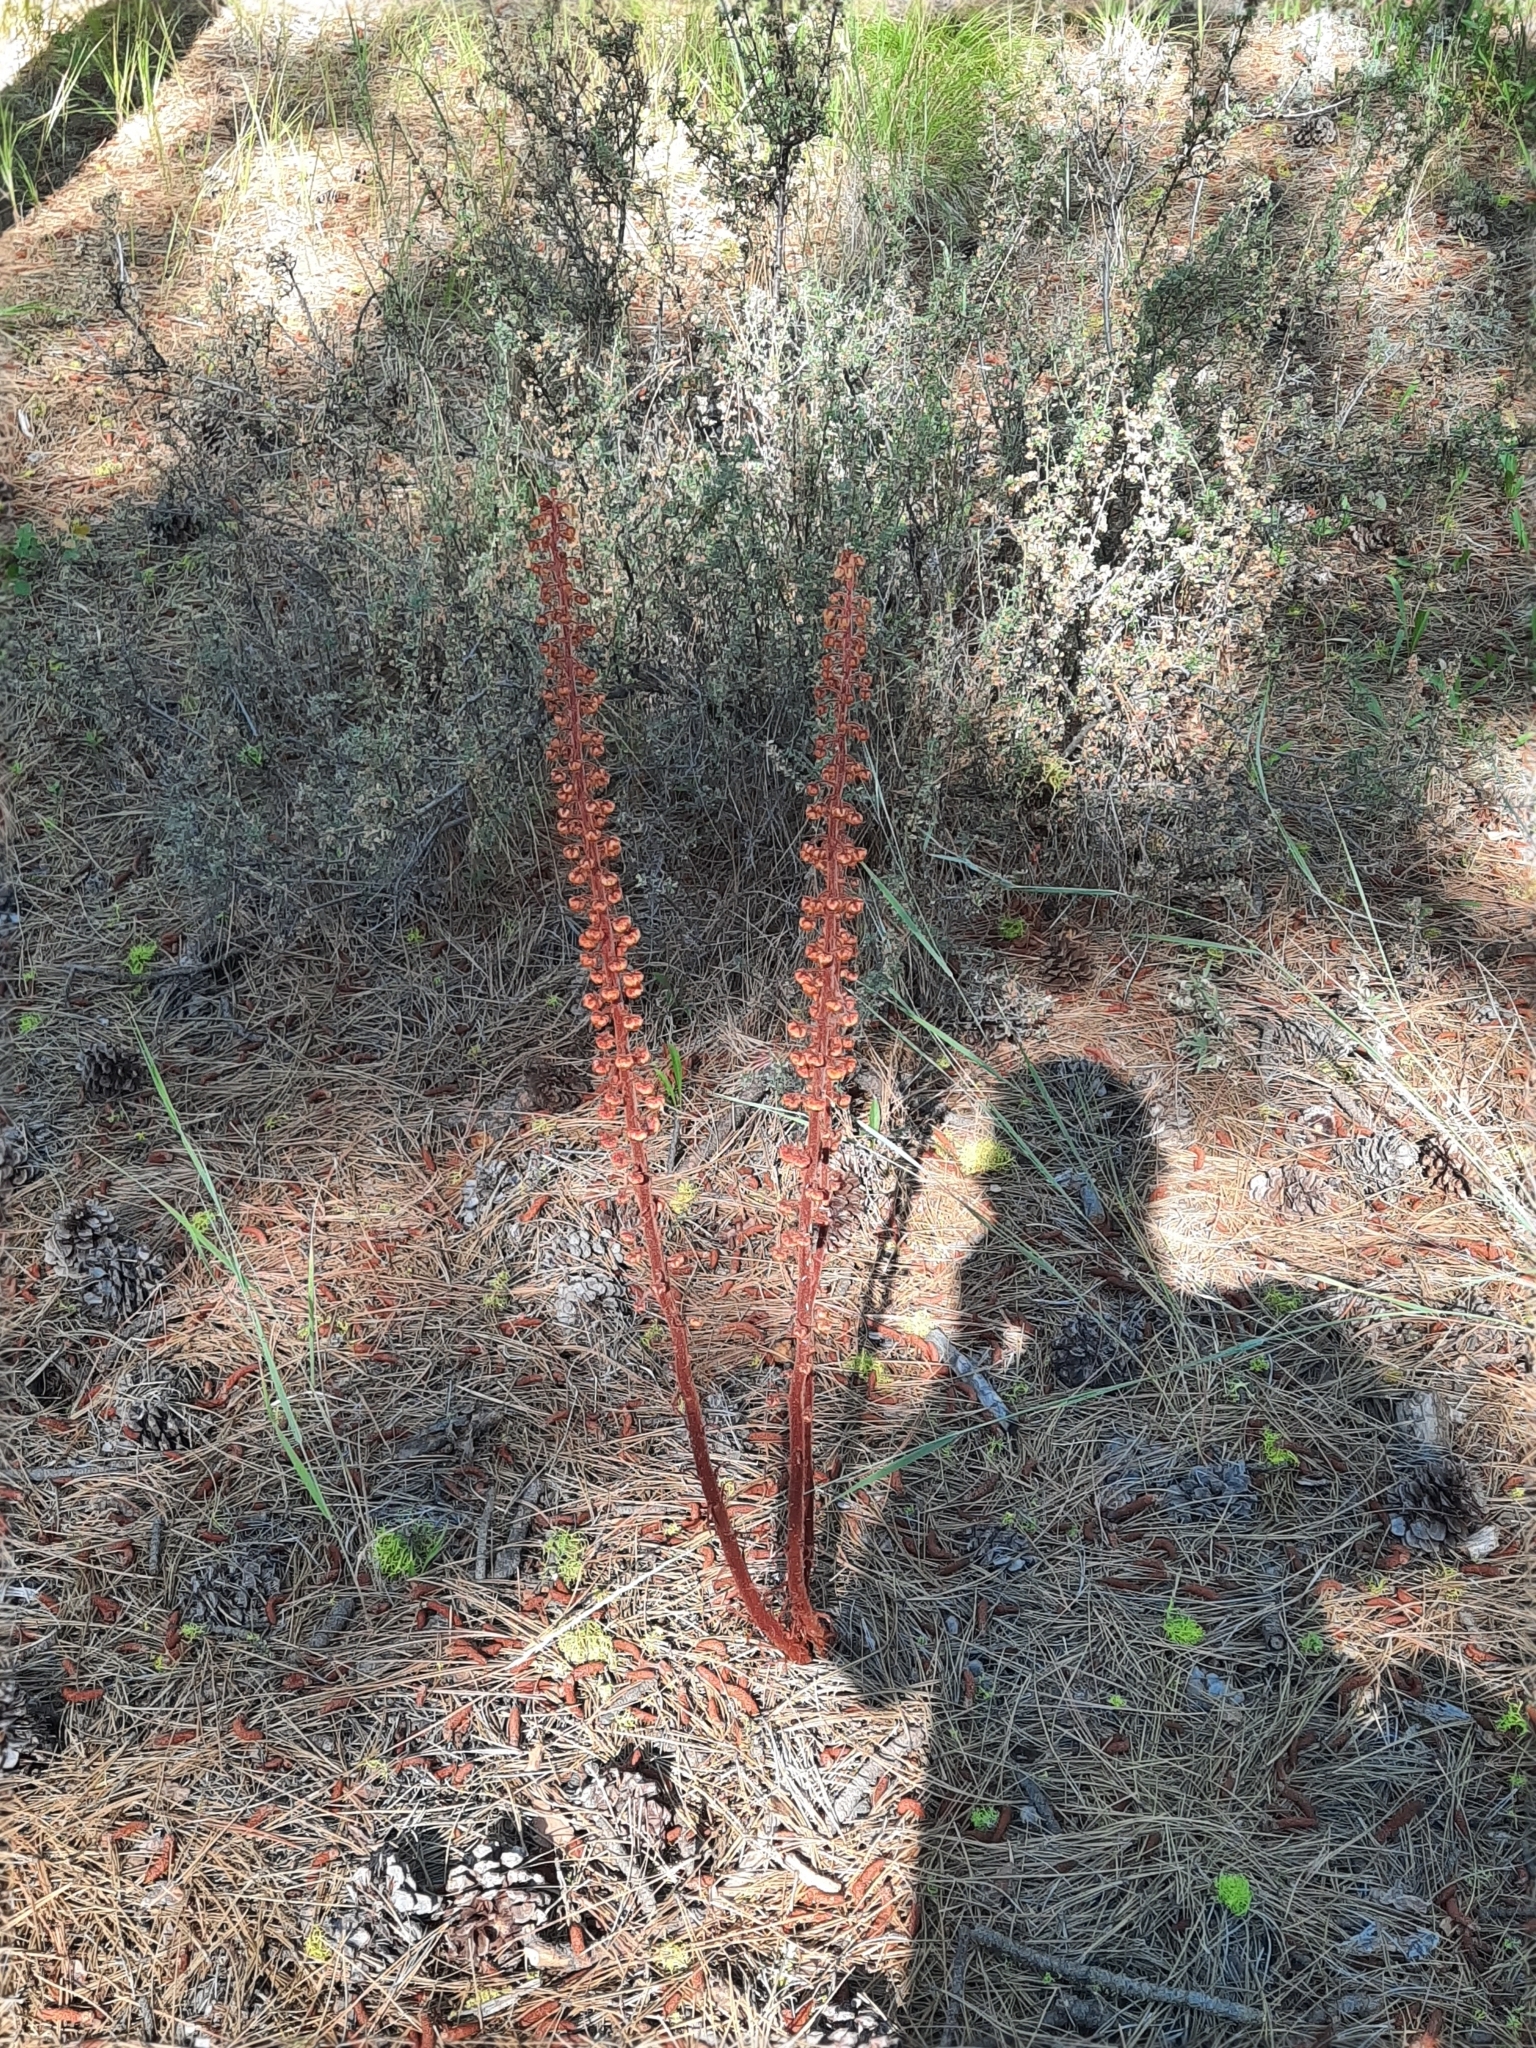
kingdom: Plantae
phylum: Tracheophyta
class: Magnoliopsida
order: Ericales
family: Ericaceae
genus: Pterospora
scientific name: Pterospora andromedea
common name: Giant bird's-nest
